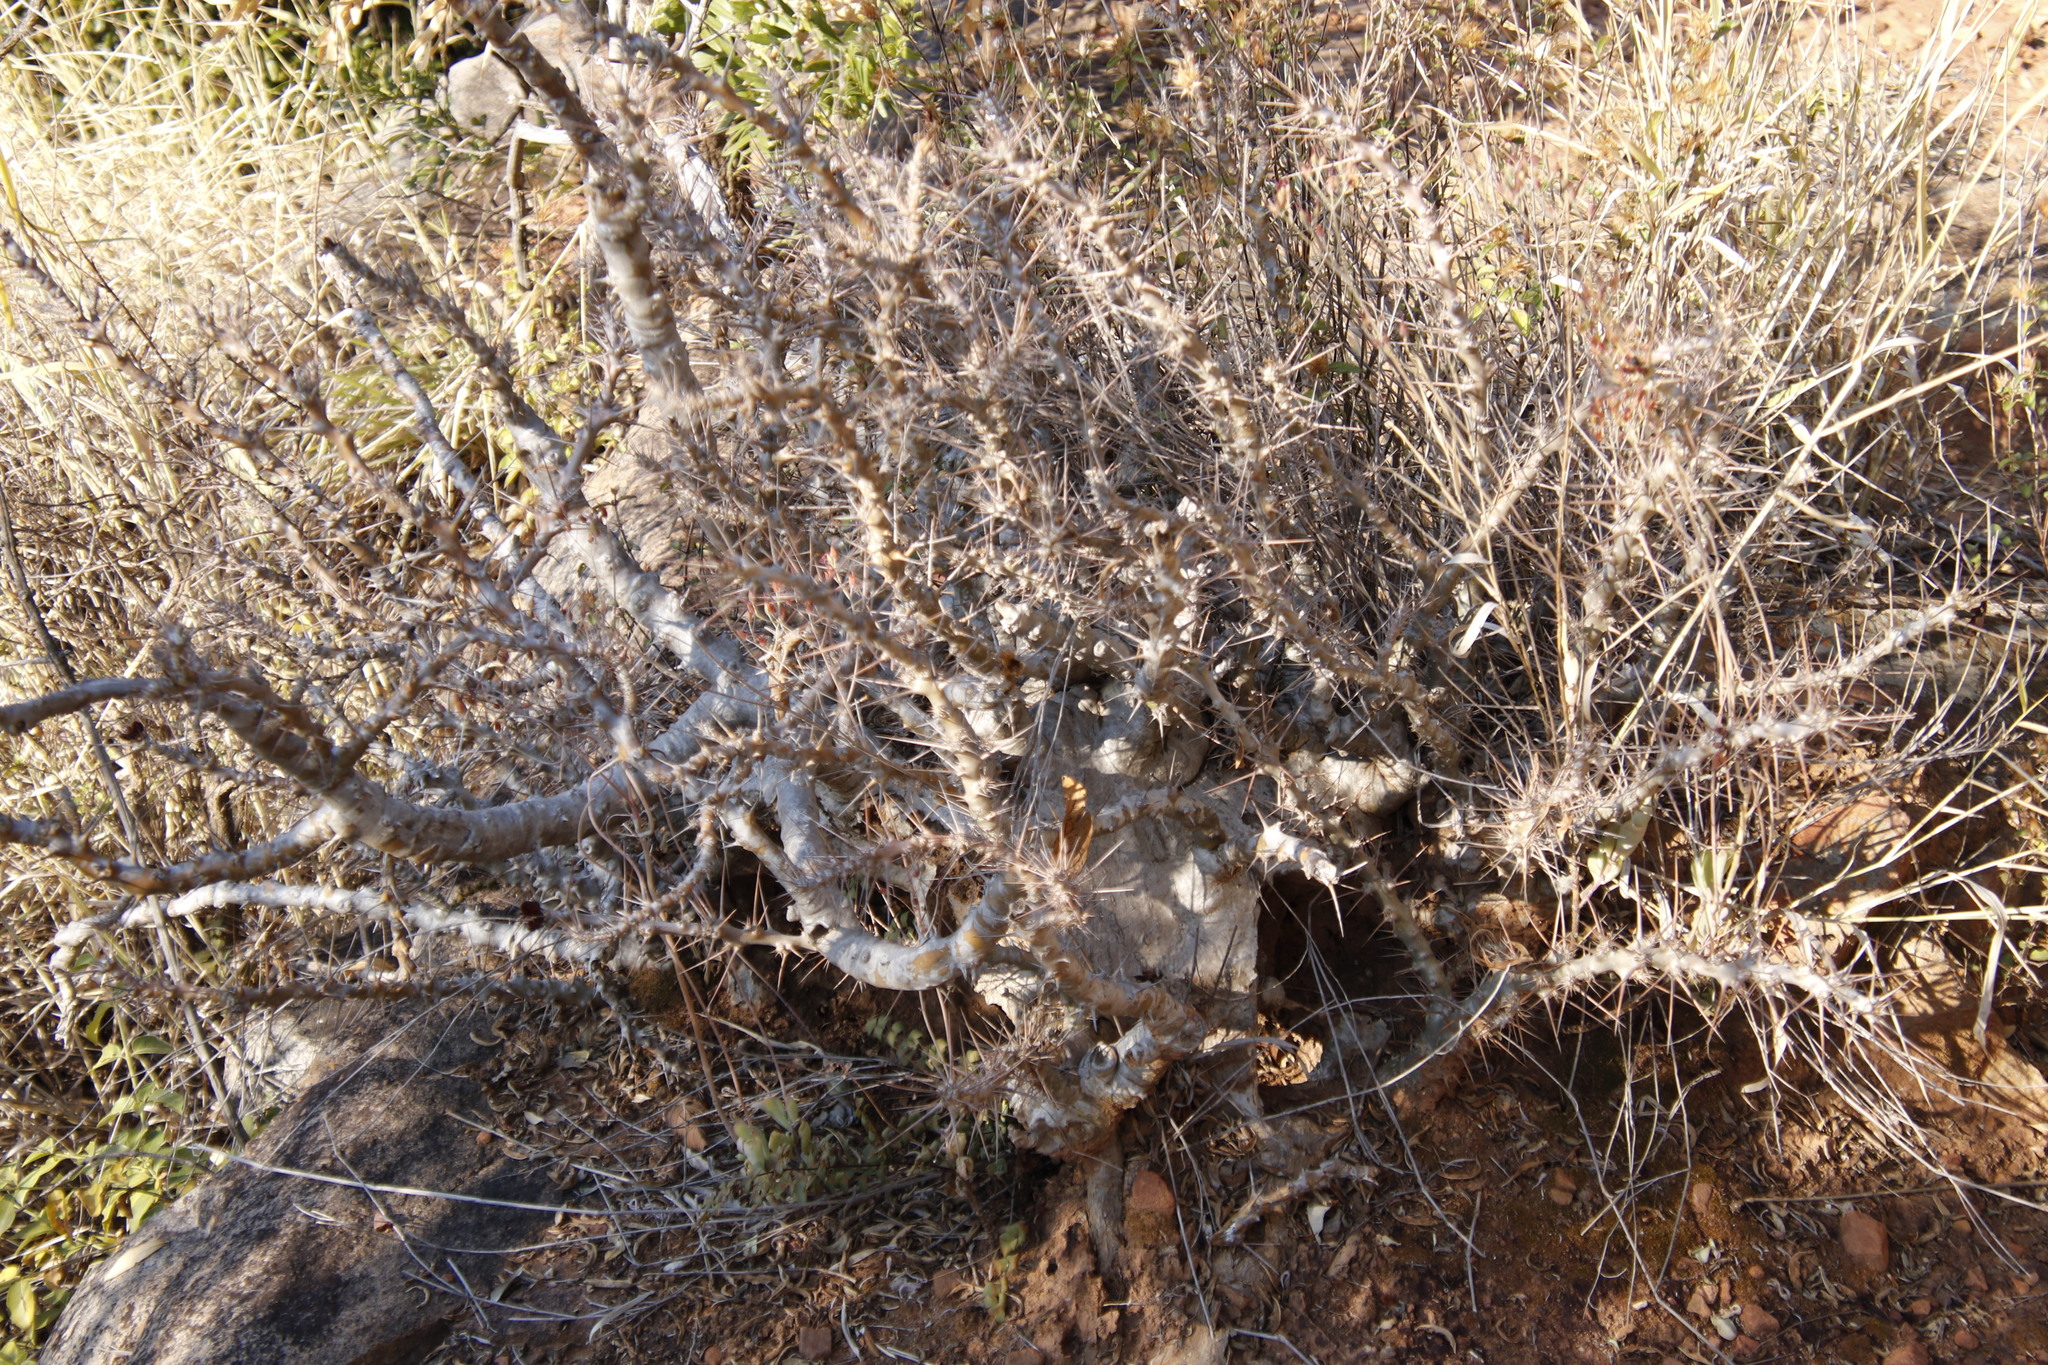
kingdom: Plantae
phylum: Tracheophyta
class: Magnoliopsida
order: Gentianales
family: Apocynaceae
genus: Pachypodium
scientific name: Pachypodium saundersii
